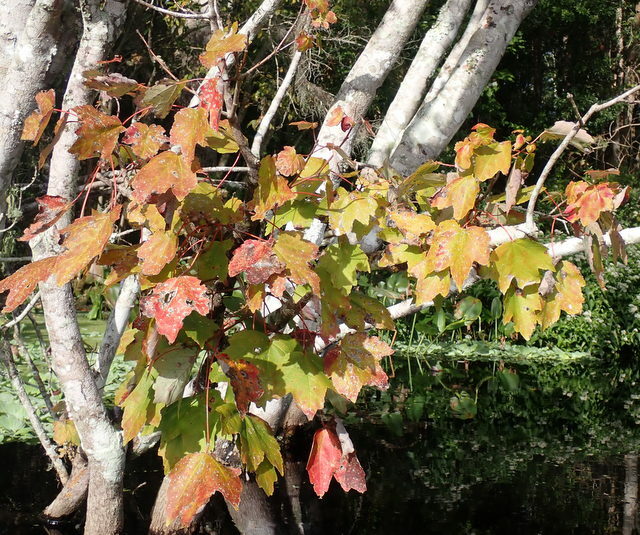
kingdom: Plantae
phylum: Tracheophyta
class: Magnoliopsida
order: Sapindales
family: Sapindaceae
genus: Acer
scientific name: Acer rubrum
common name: Red maple
